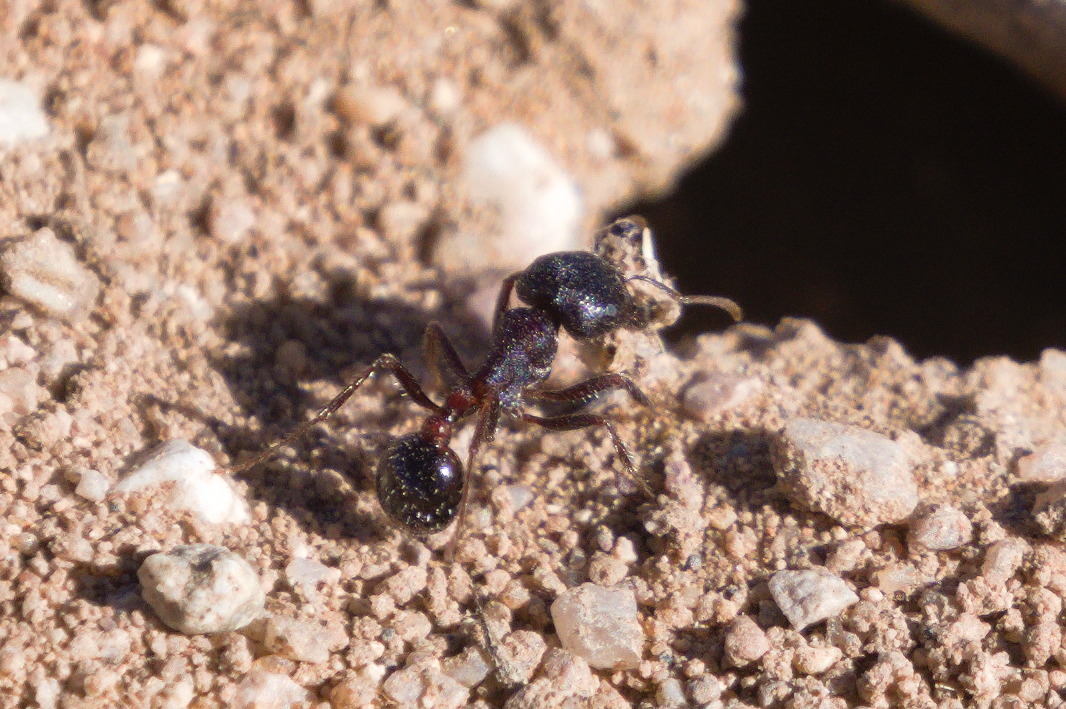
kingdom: Animalia
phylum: Arthropoda
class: Insecta
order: Hymenoptera
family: Formicidae
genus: Pogonomyrmex
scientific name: Pogonomyrmex rugosus
